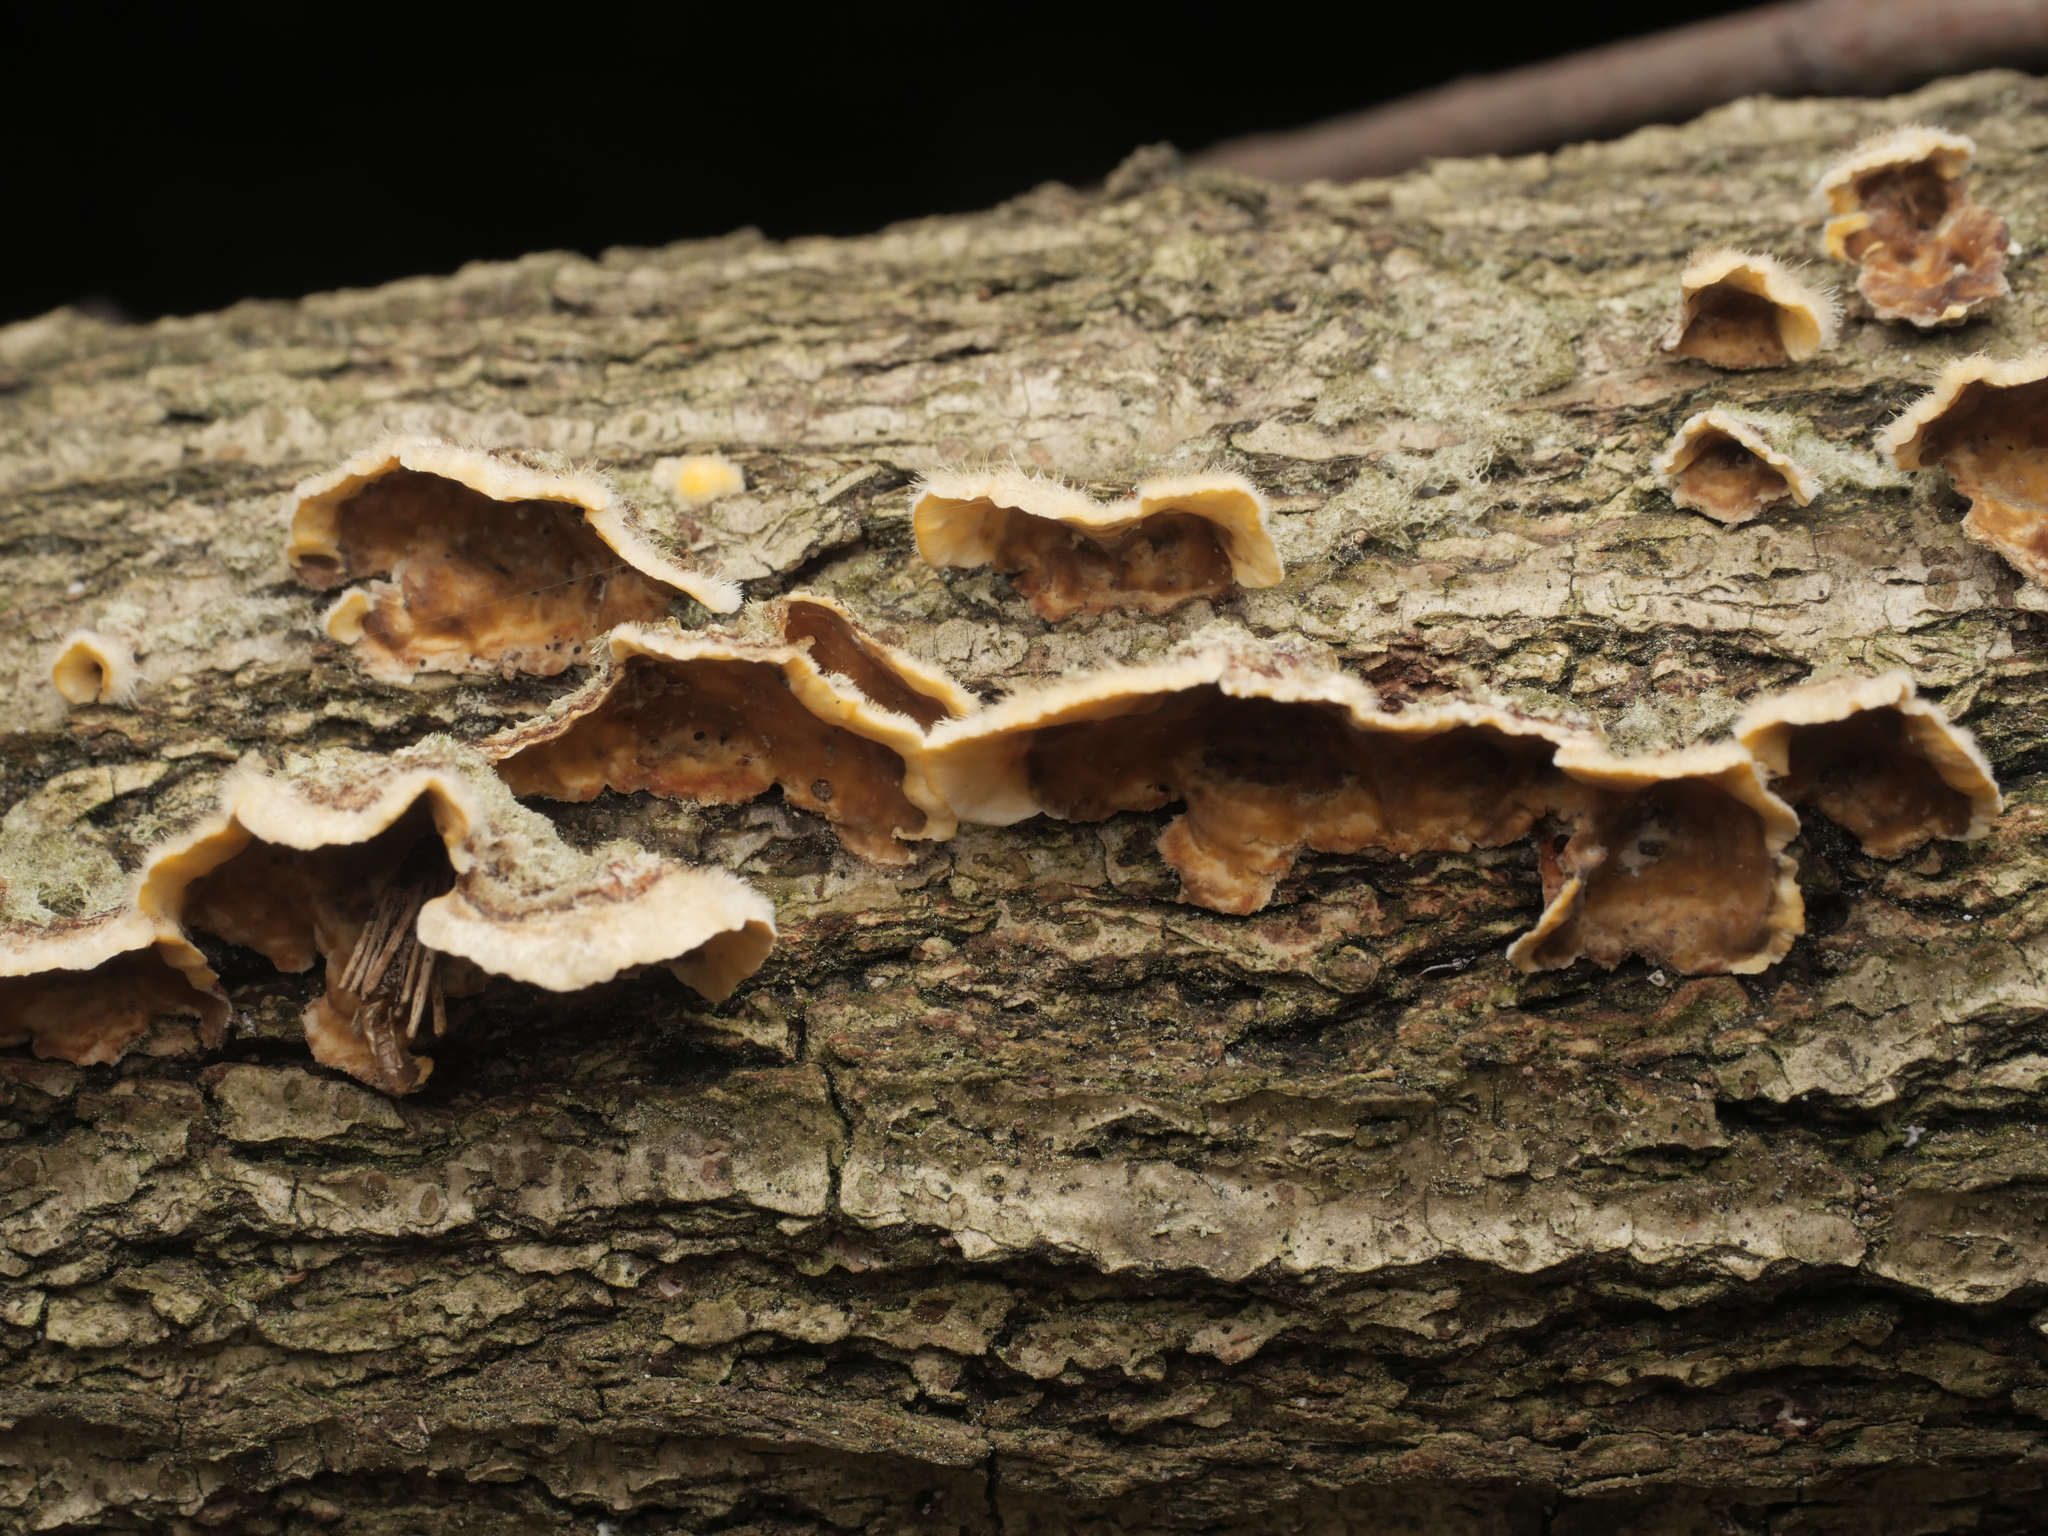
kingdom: Fungi
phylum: Basidiomycota
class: Agaricomycetes
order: Russulales
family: Stereaceae
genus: Stereum
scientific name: Stereum hirsutum
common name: Hairy curtain crust
